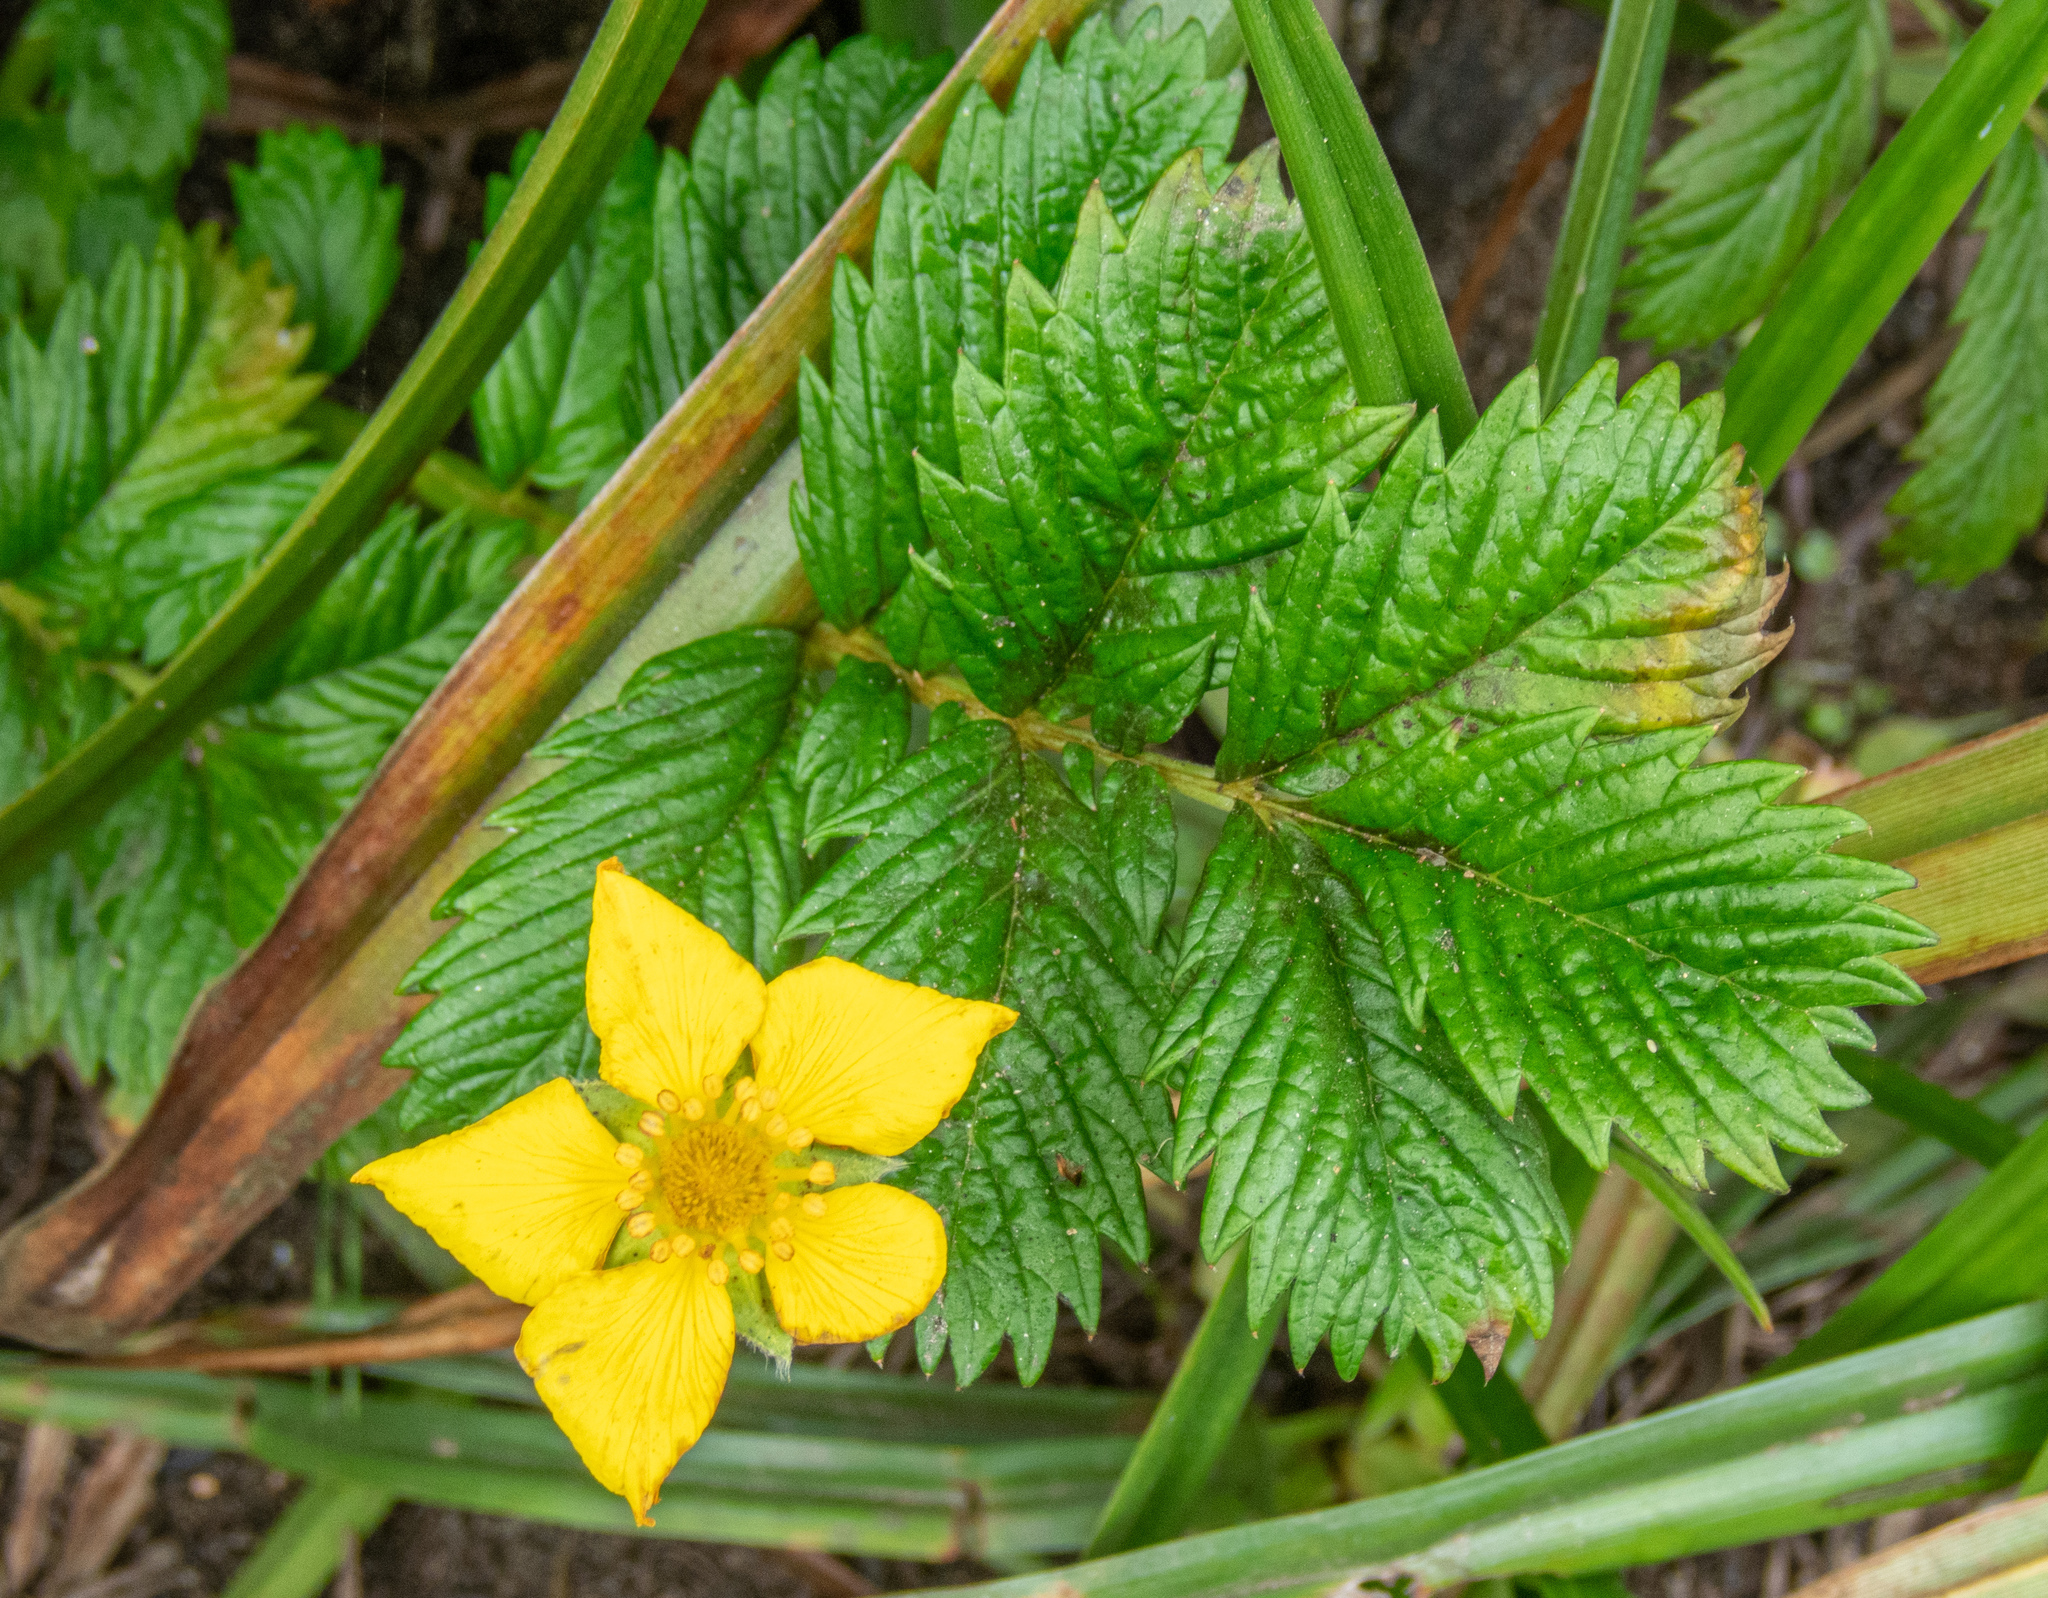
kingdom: Plantae
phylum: Tracheophyta
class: Magnoliopsida
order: Rosales
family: Rosaceae
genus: Argentina
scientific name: Argentina anserina
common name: Common silverweed
